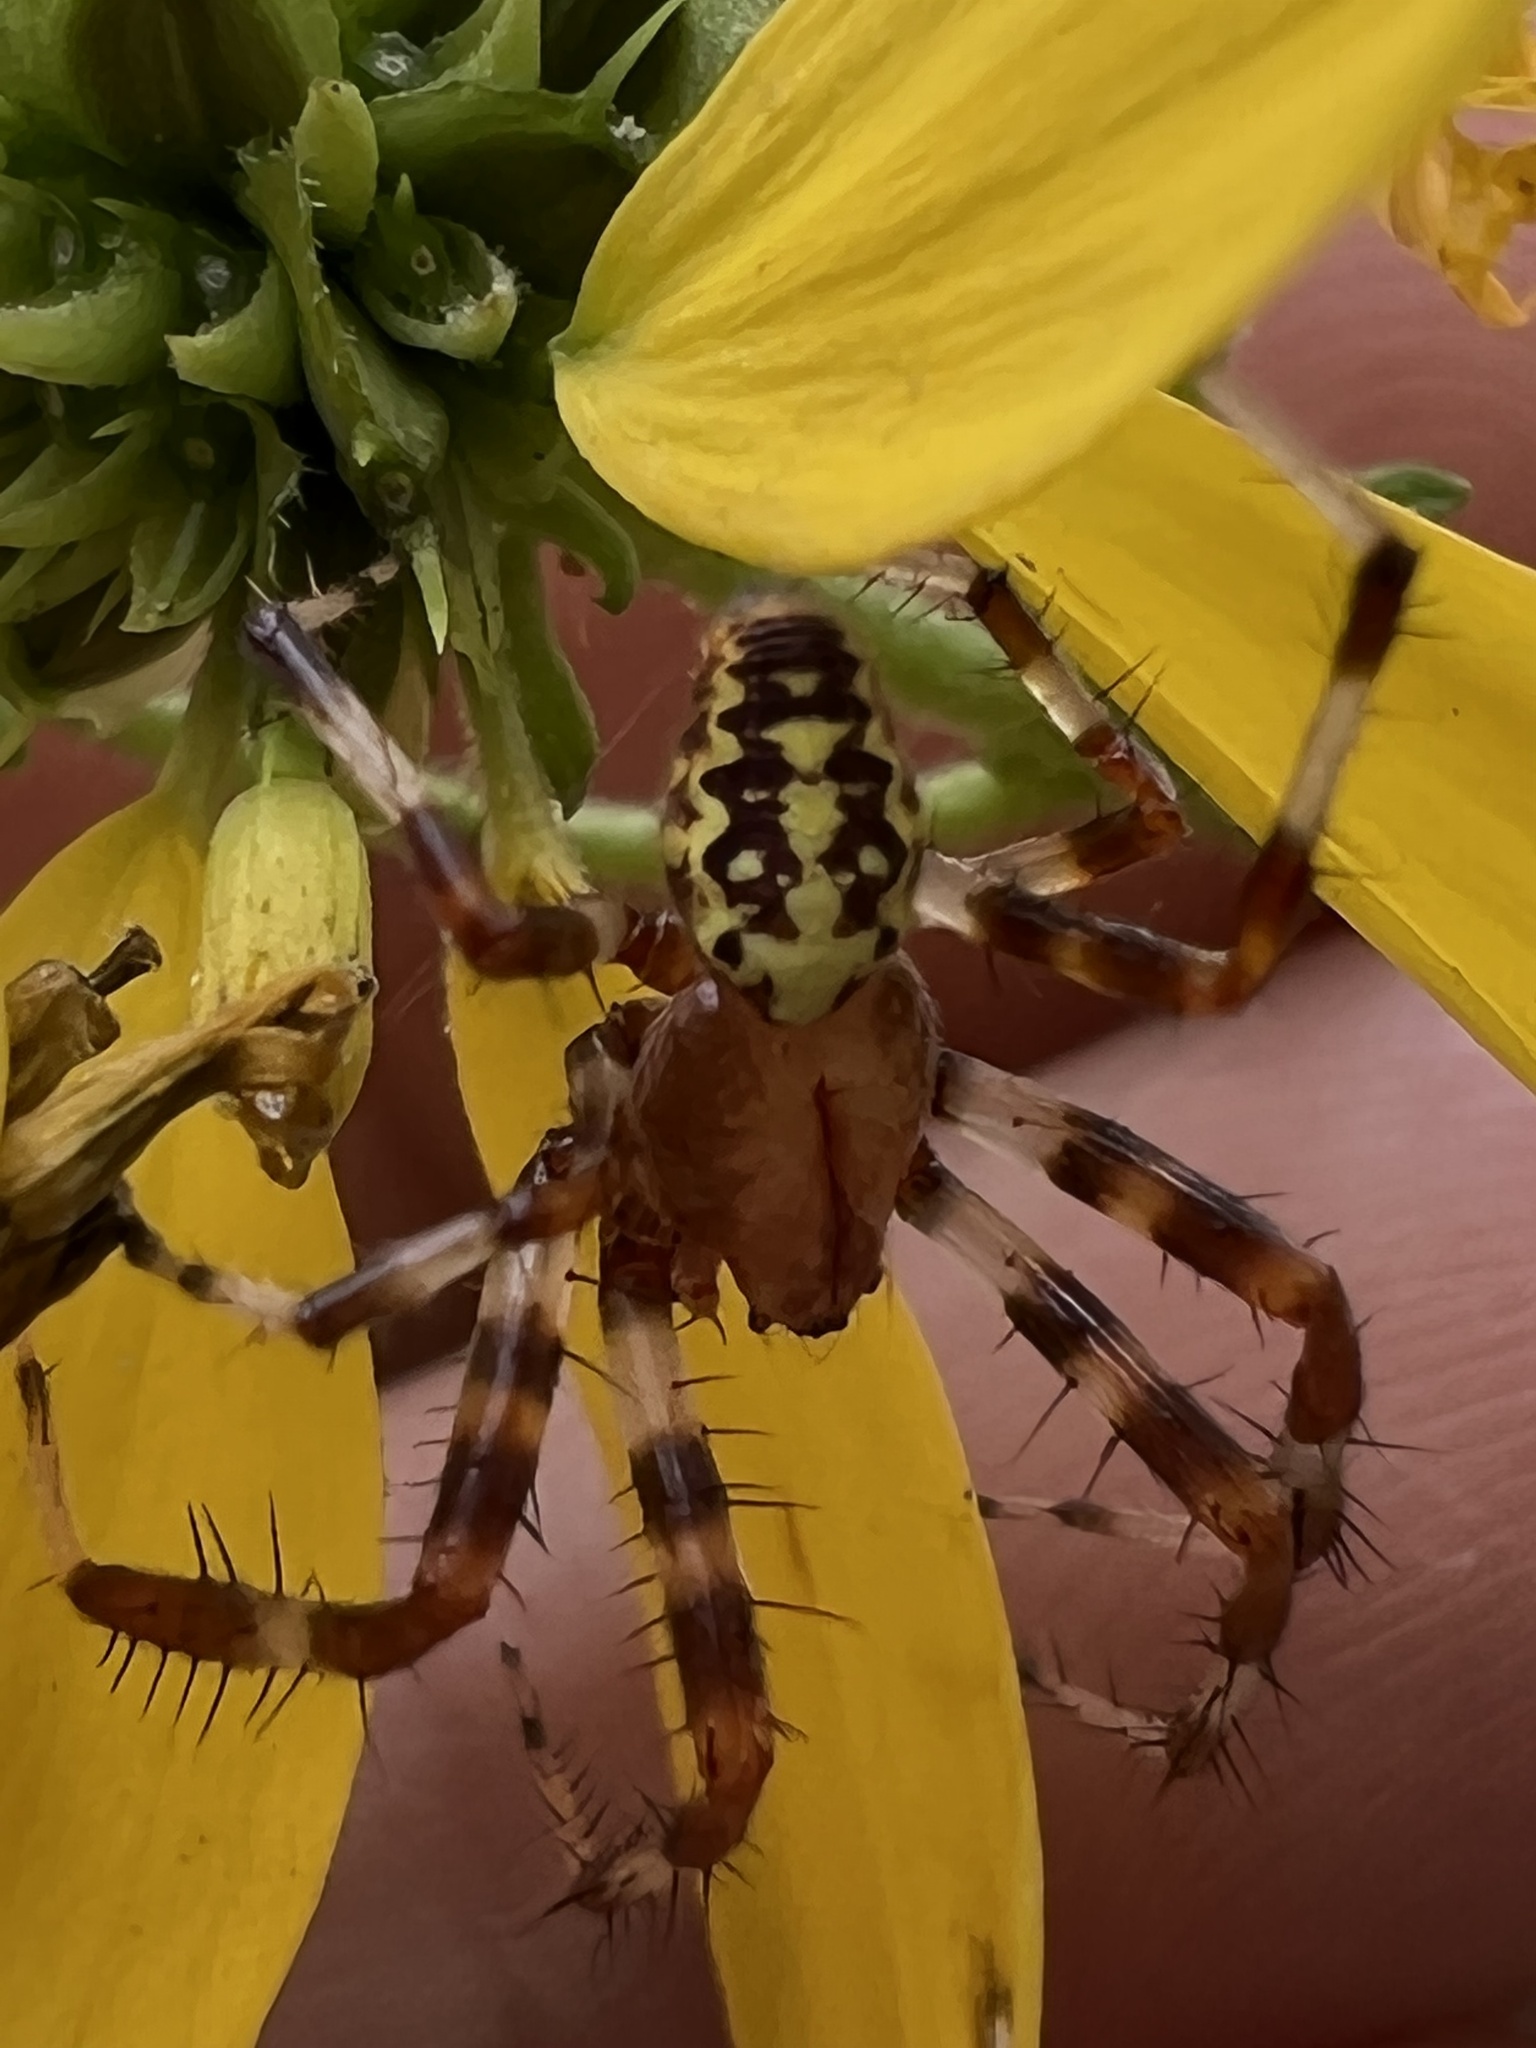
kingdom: Animalia
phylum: Arthropoda
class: Arachnida
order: Araneae
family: Araneidae
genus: Araneus
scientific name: Araneus marmoreus
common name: Marbled orbweaver
